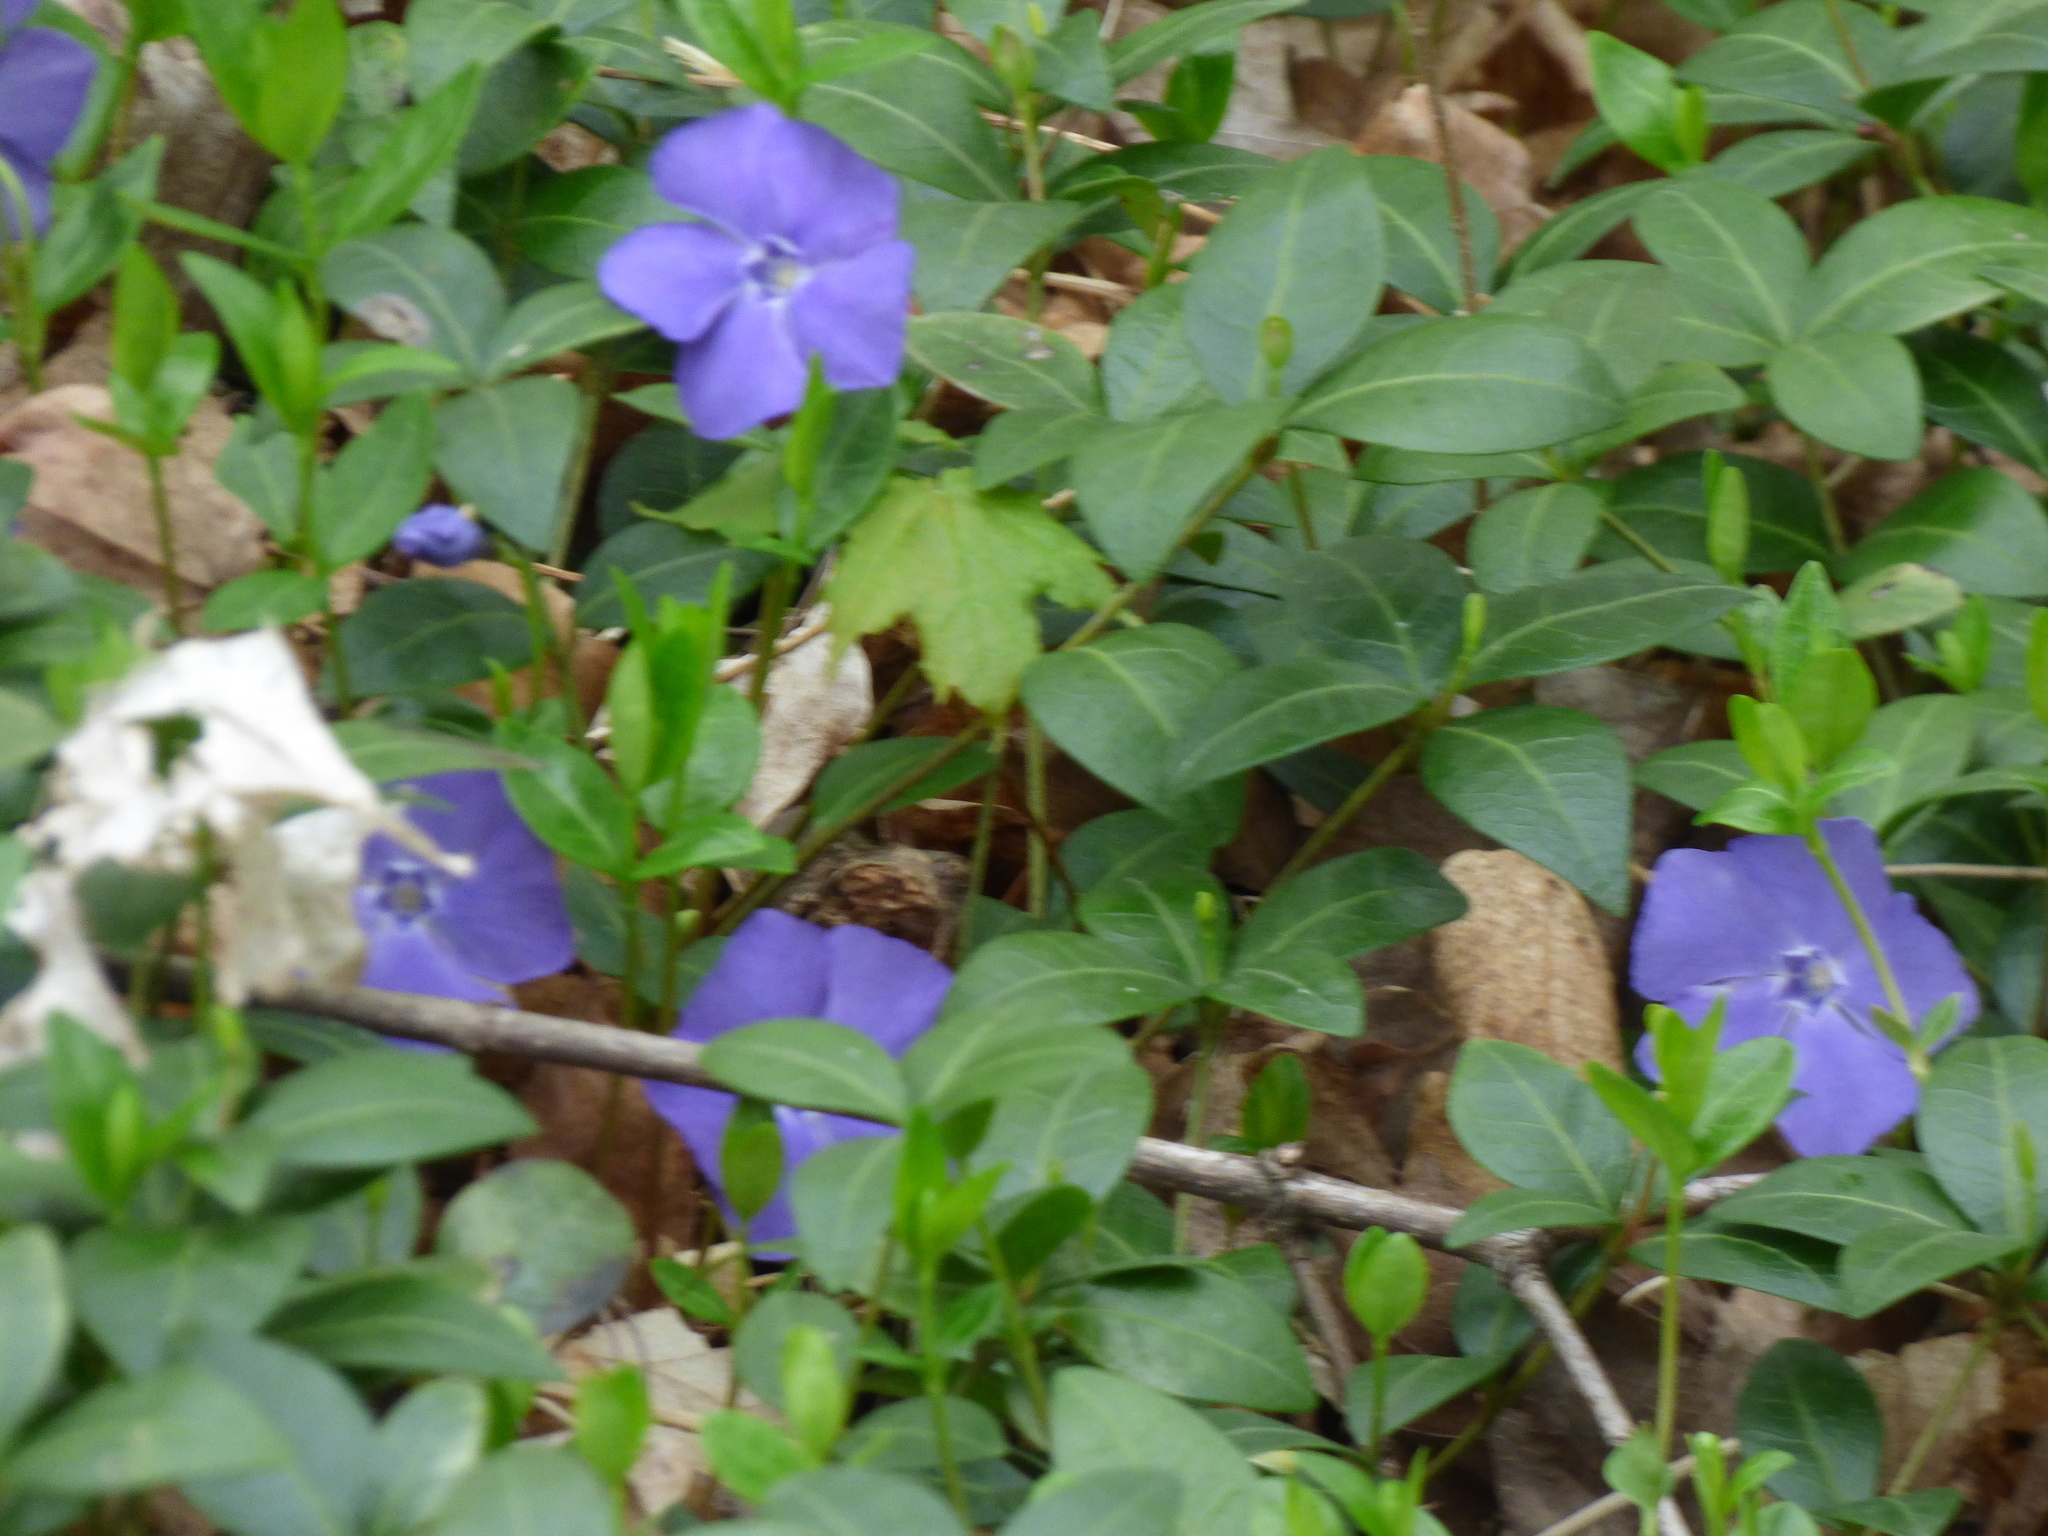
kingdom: Plantae
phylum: Tracheophyta
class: Magnoliopsida
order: Gentianales
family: Apocynaceae
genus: Vinca
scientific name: Vinca minor
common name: Lesser periwinkle
